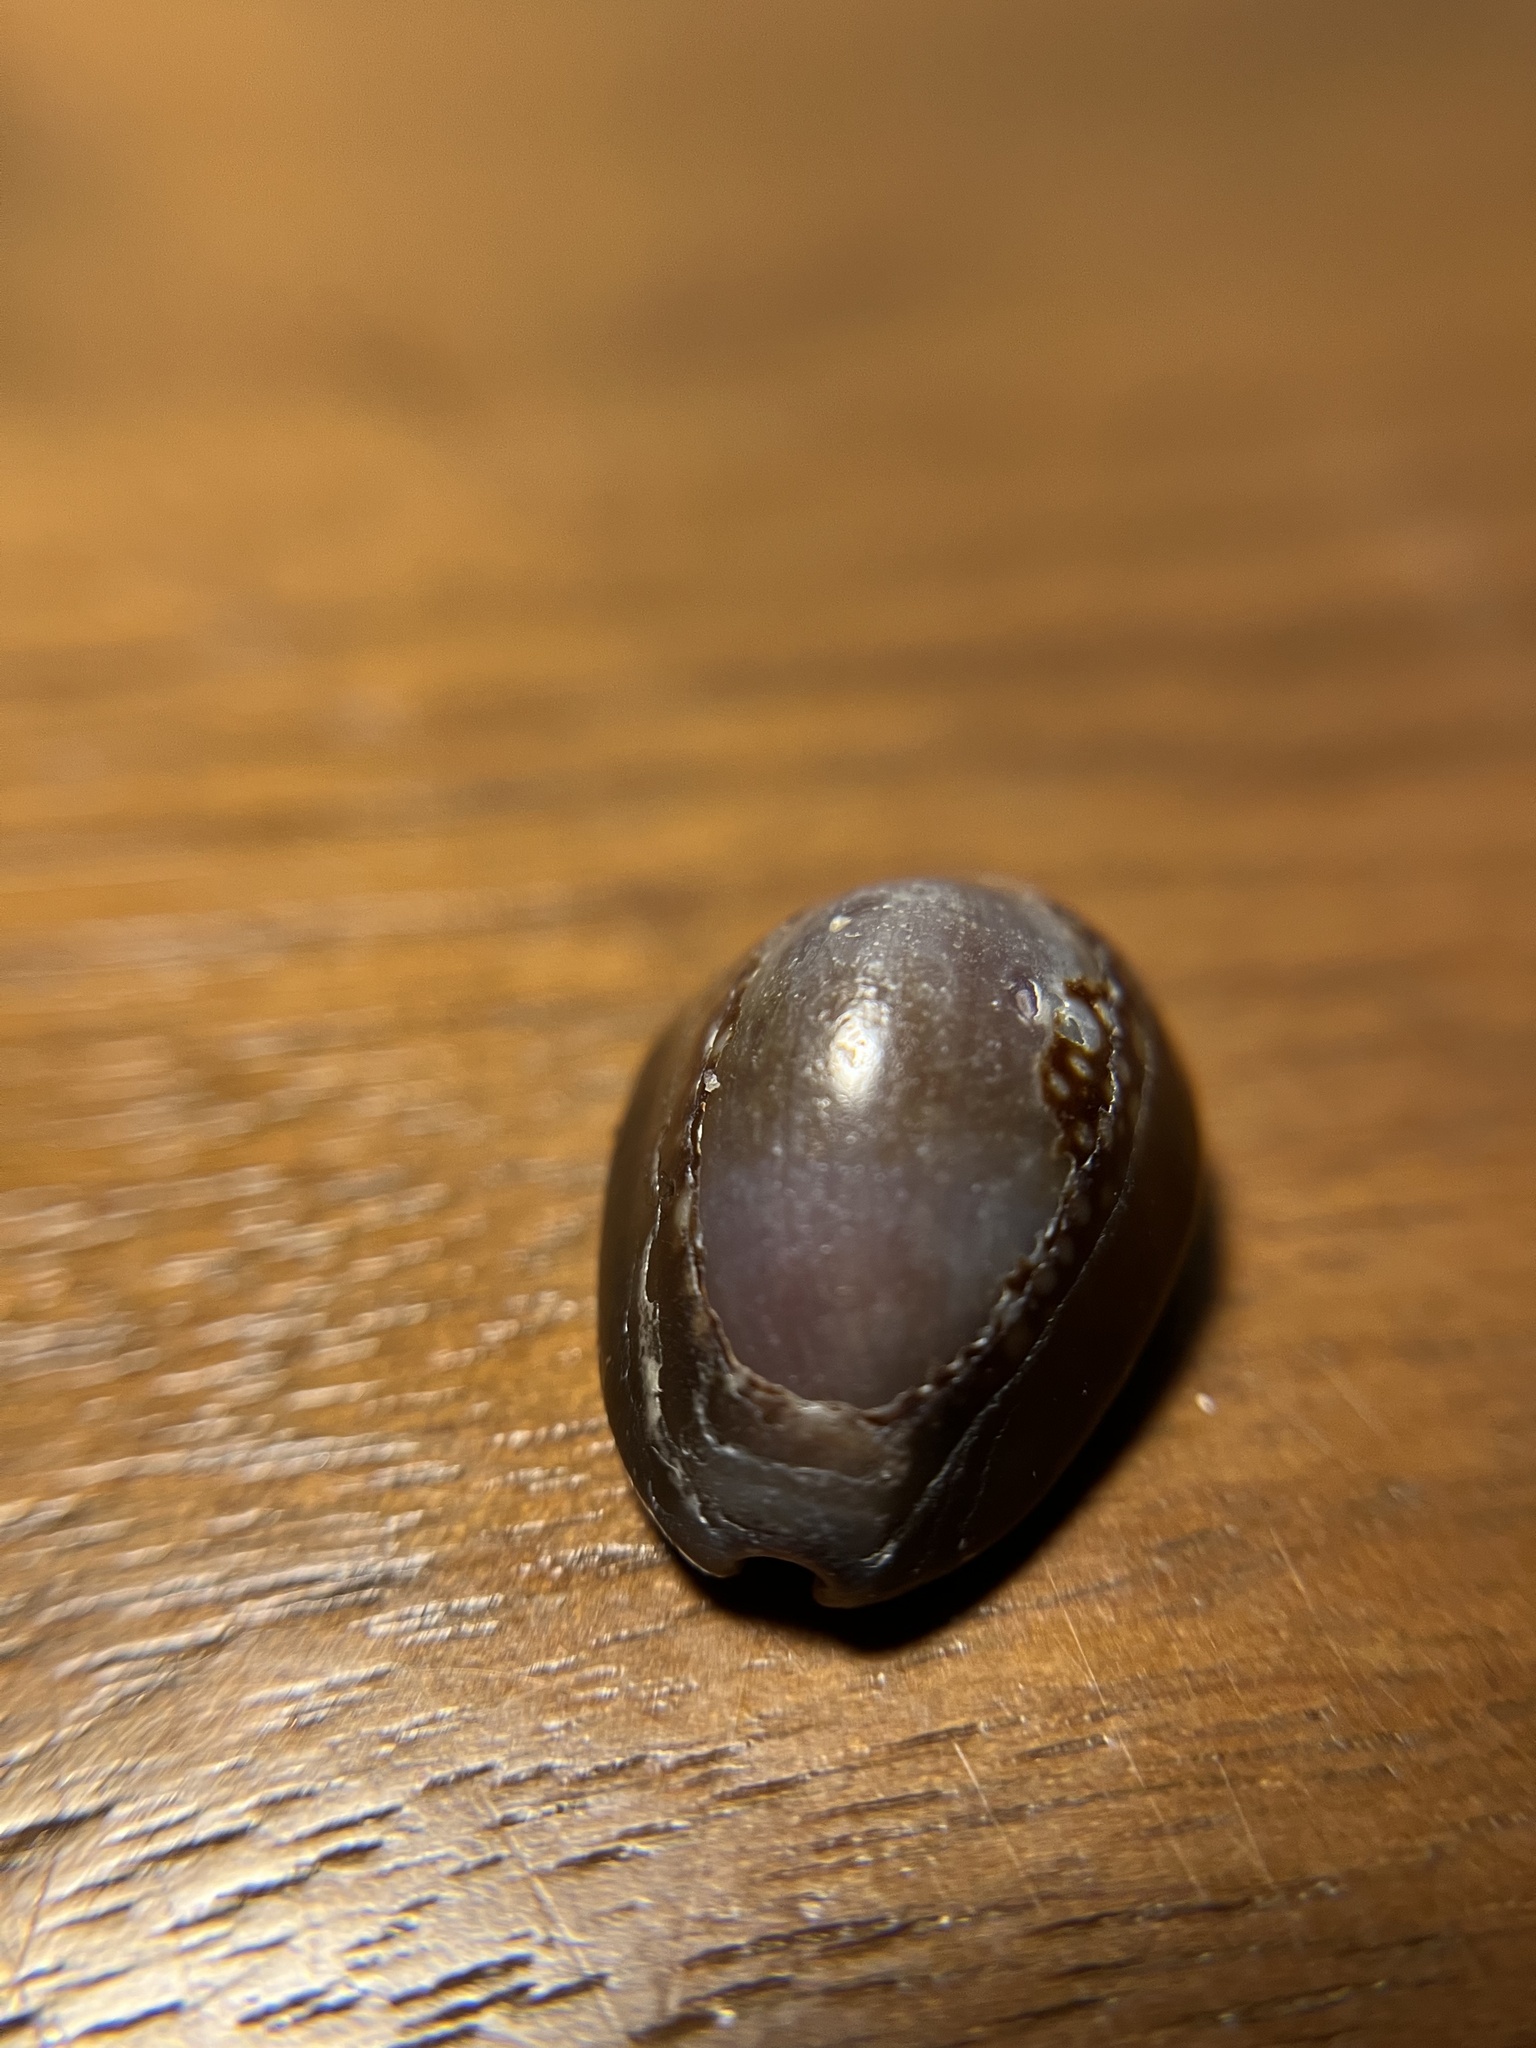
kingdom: Animalia
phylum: Mollusca
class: Gastropoda
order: Littorinimorpha
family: Cypraeidae
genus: Monetaria
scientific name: Monetaria caputophidii
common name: Snake's head cowry
